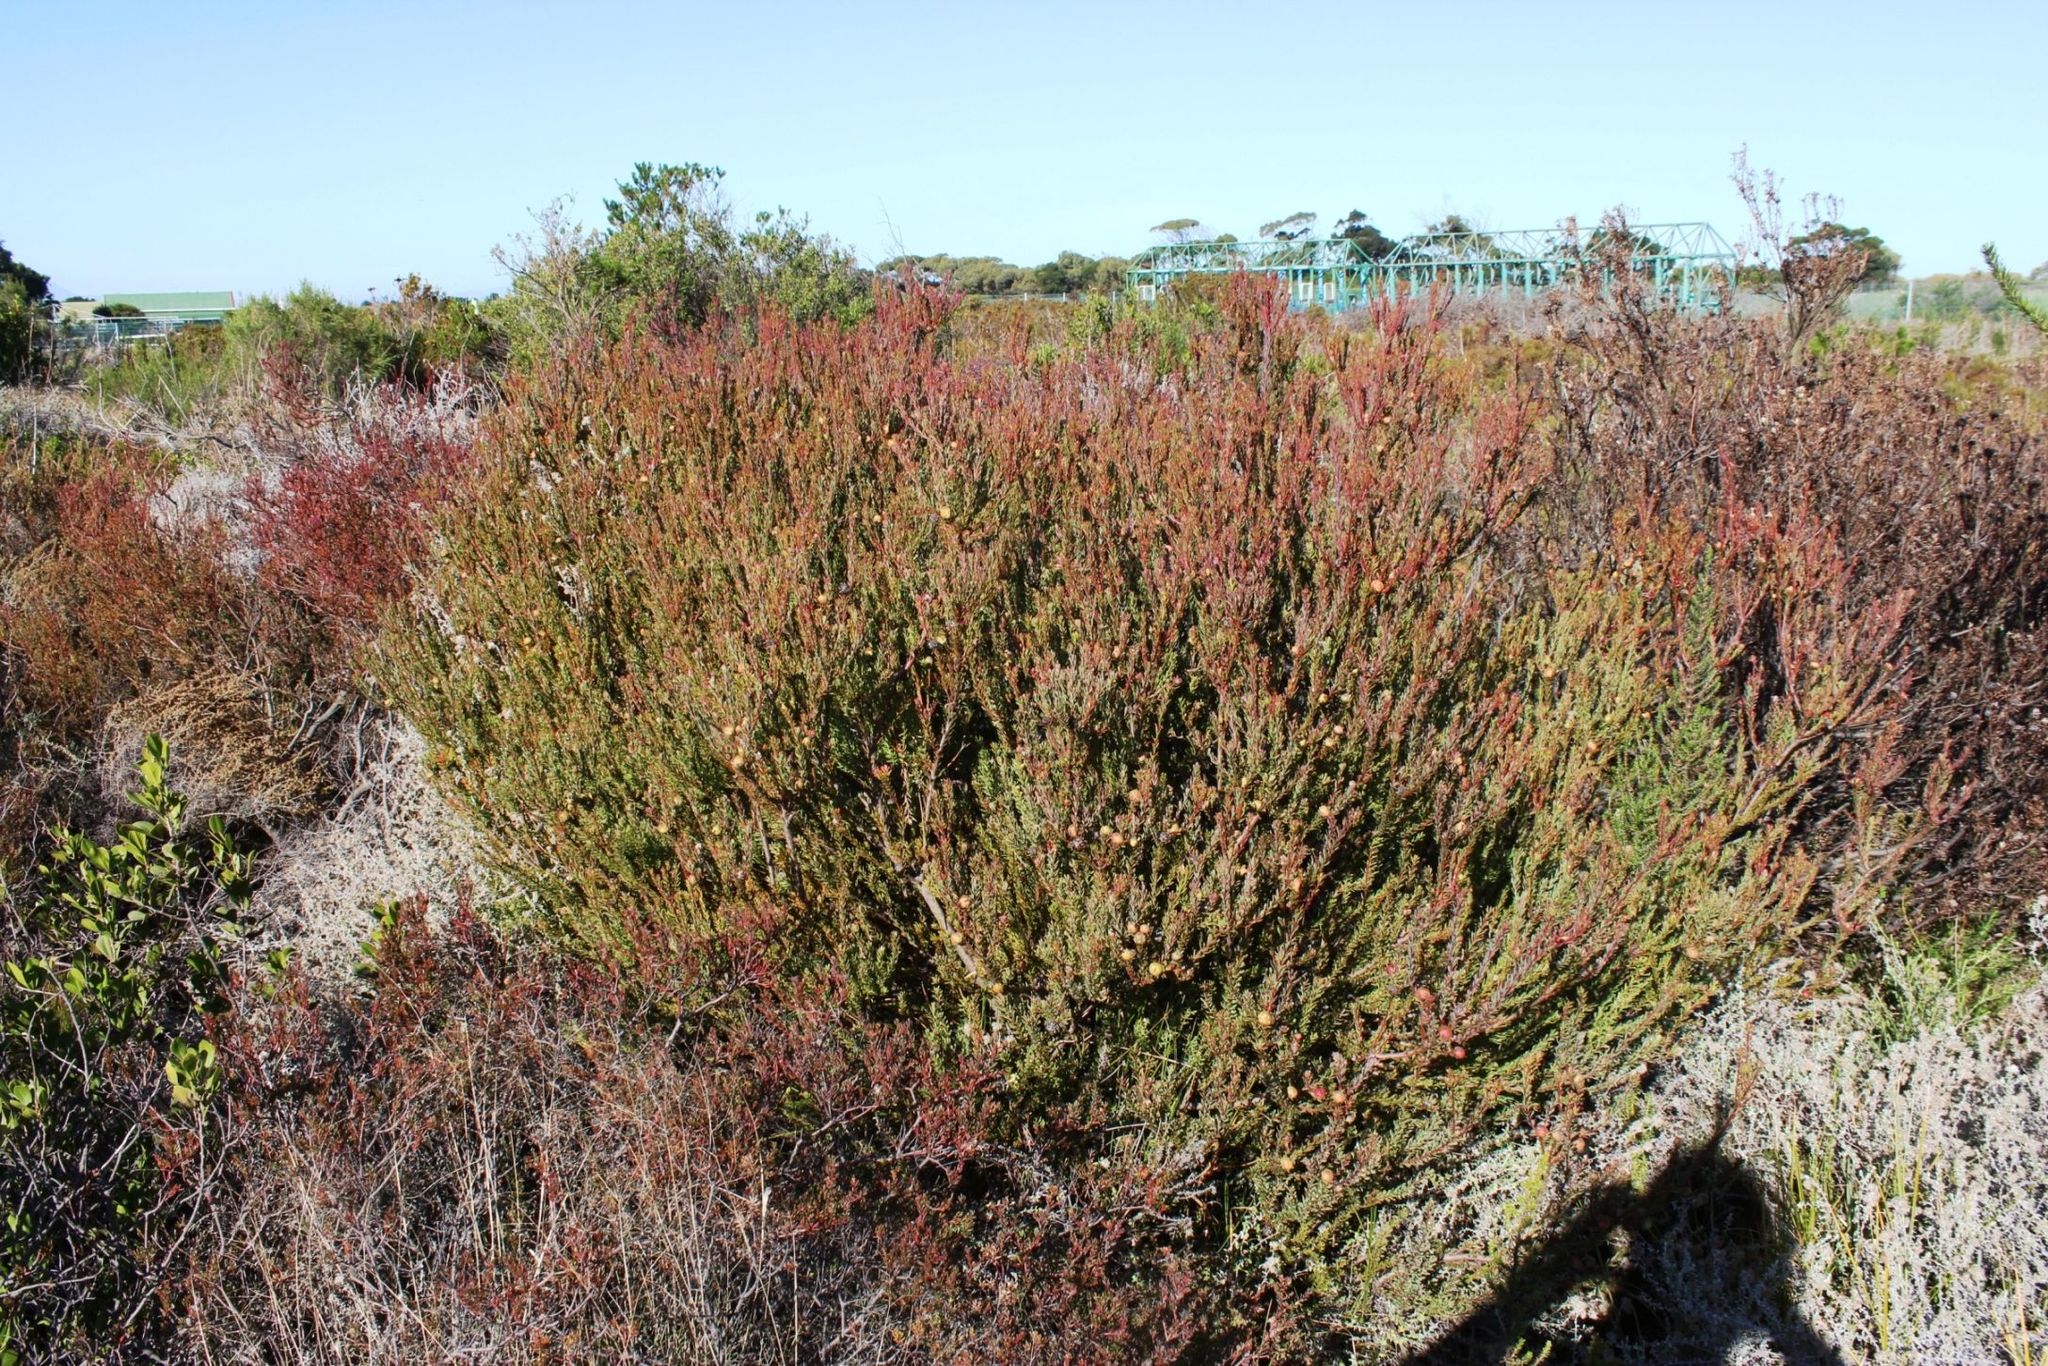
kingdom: Plantae
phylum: Tracheophyta
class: Magnoliopsida
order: Proteales
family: Proteaceae
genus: Leucadendron
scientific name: Leucadendron levisanus
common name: Cape flats conebush
